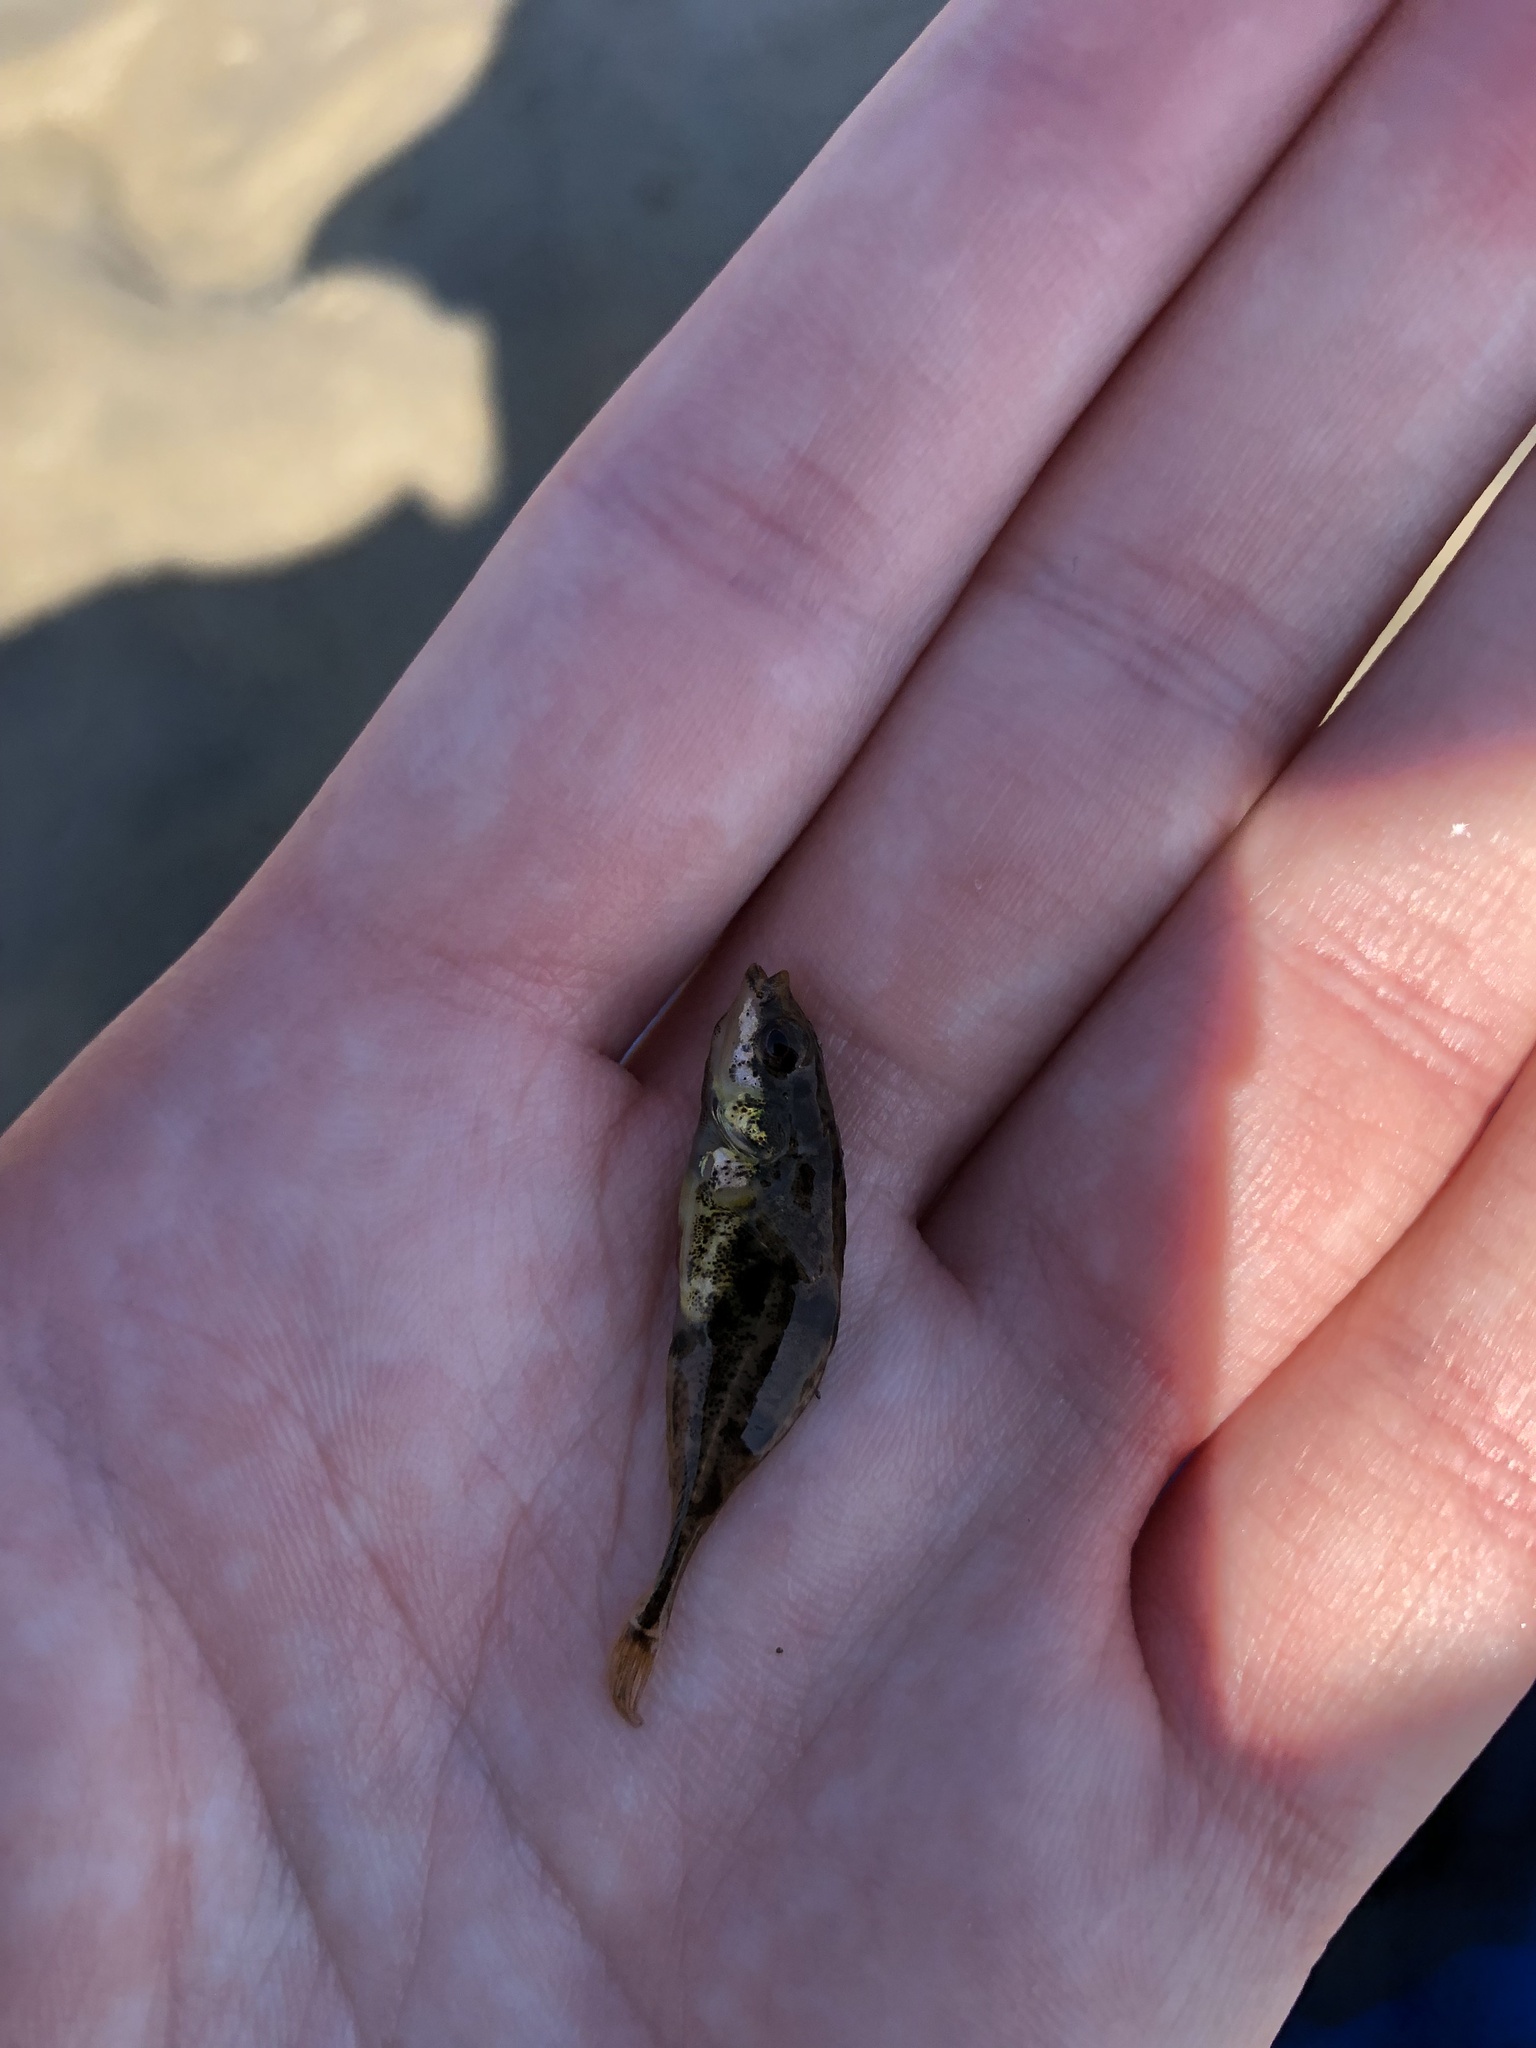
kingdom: Animalia
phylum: Chordata
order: Gasterosteiformes
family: Gasterosteidae
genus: Apeltes
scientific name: Apeltes quadracus
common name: Fourspine stickleback
